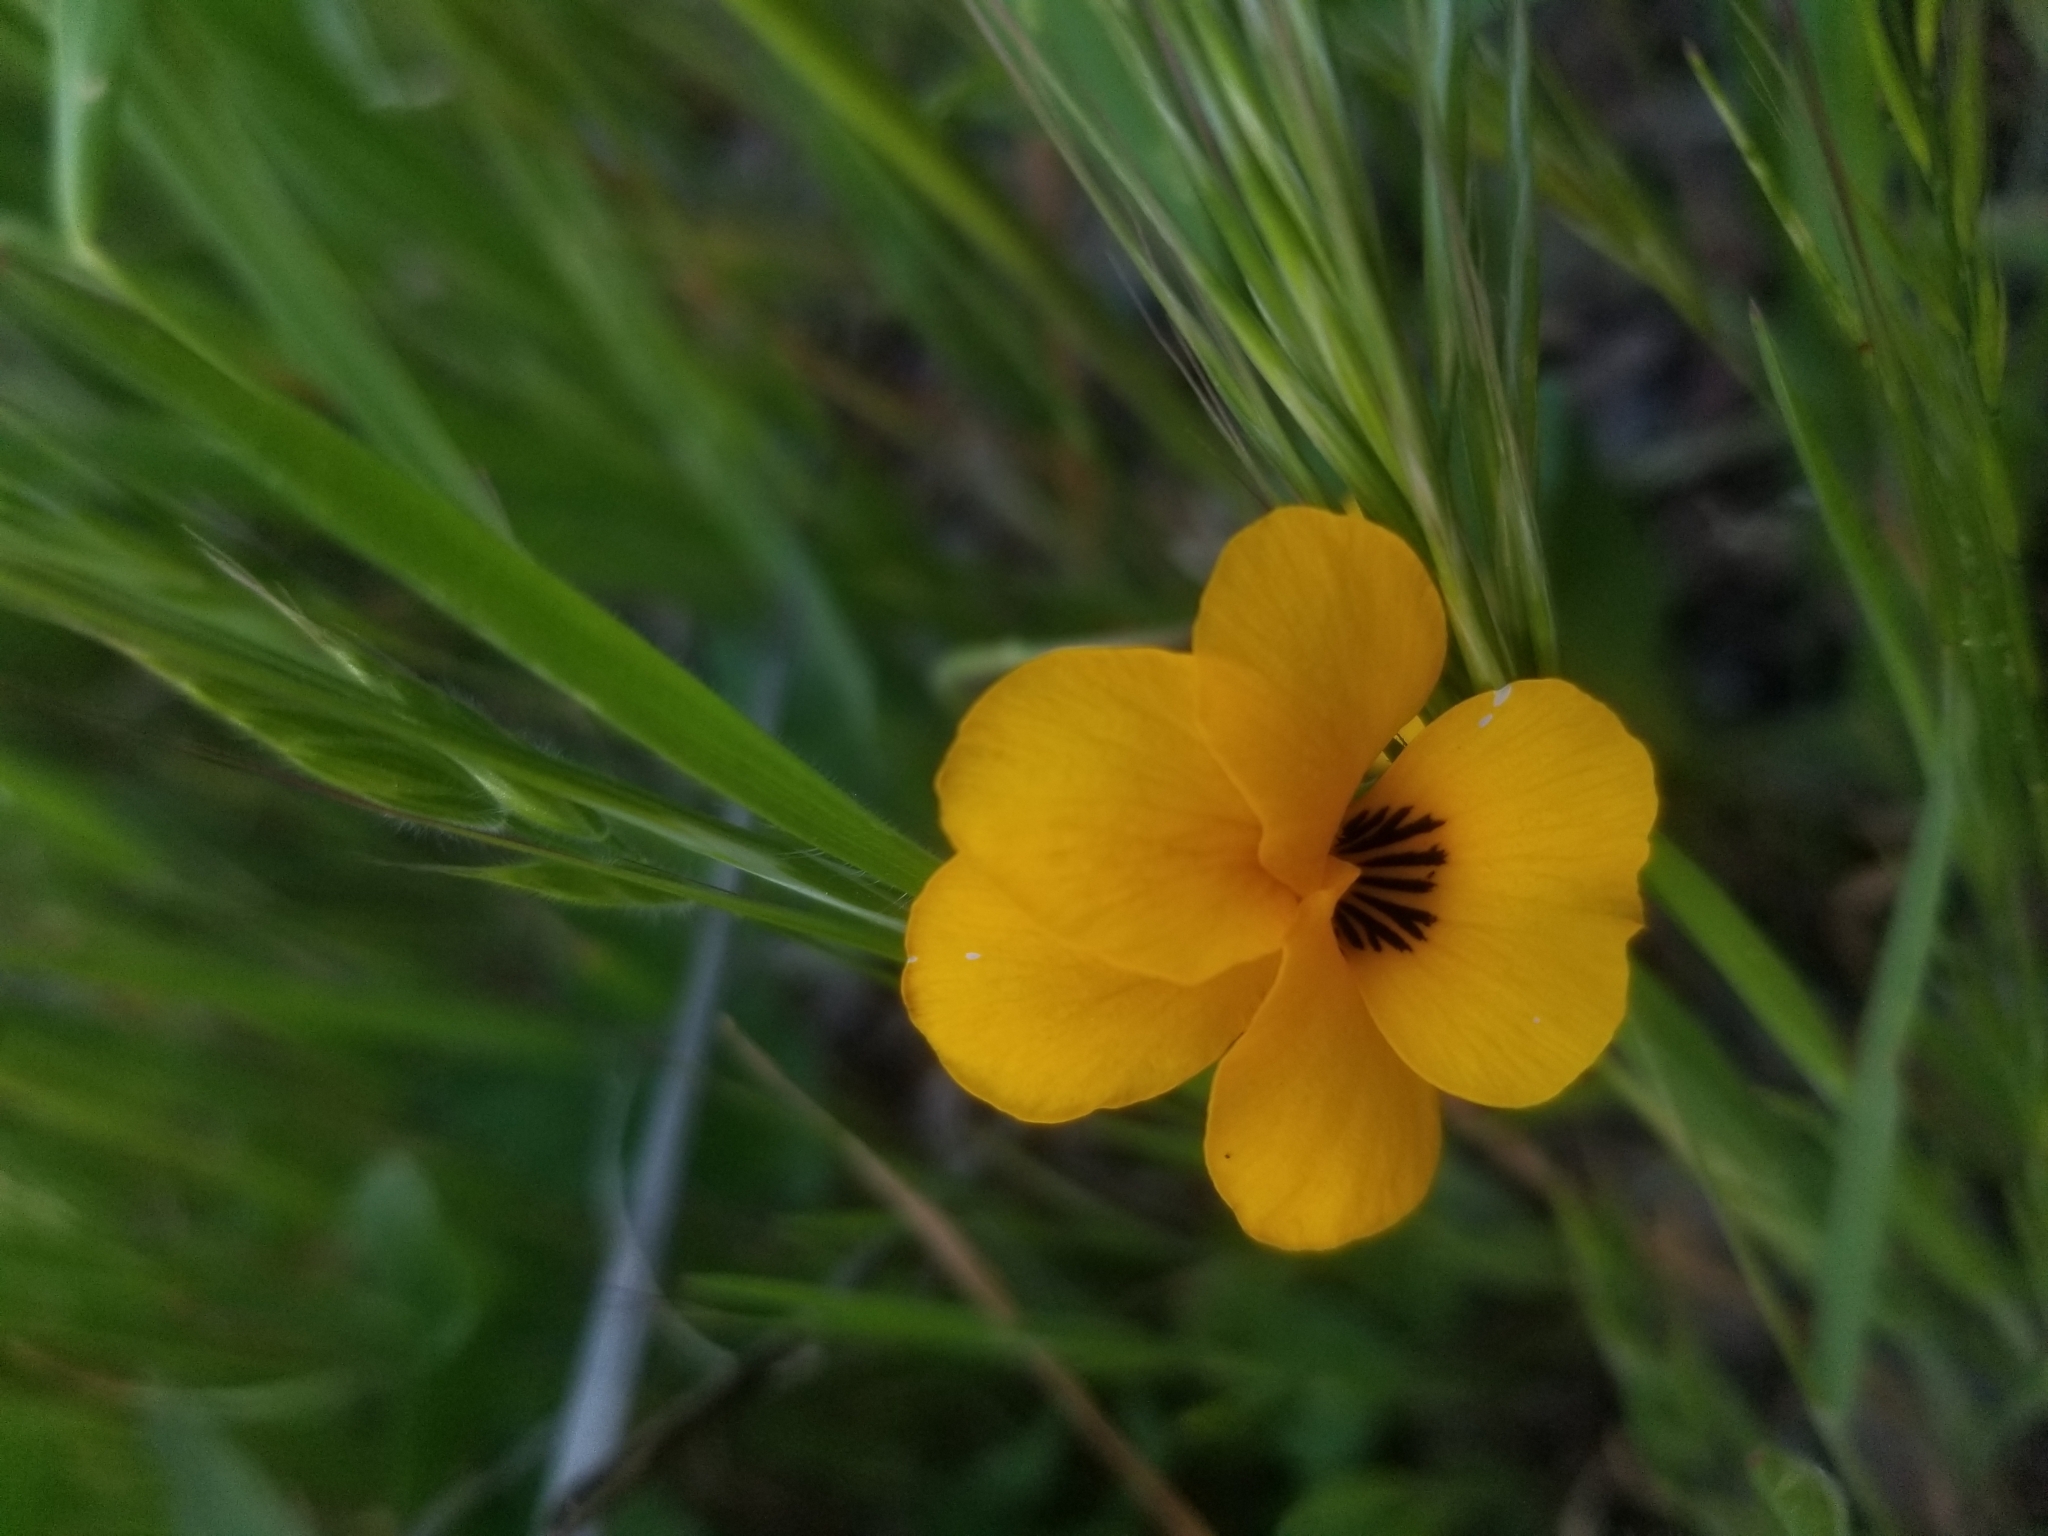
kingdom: Plantae
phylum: Tracheophyta
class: Magnoliopsida
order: Malpighiales
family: Violaceae
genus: Viola
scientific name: Viola pedunculata
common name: California golden violet
